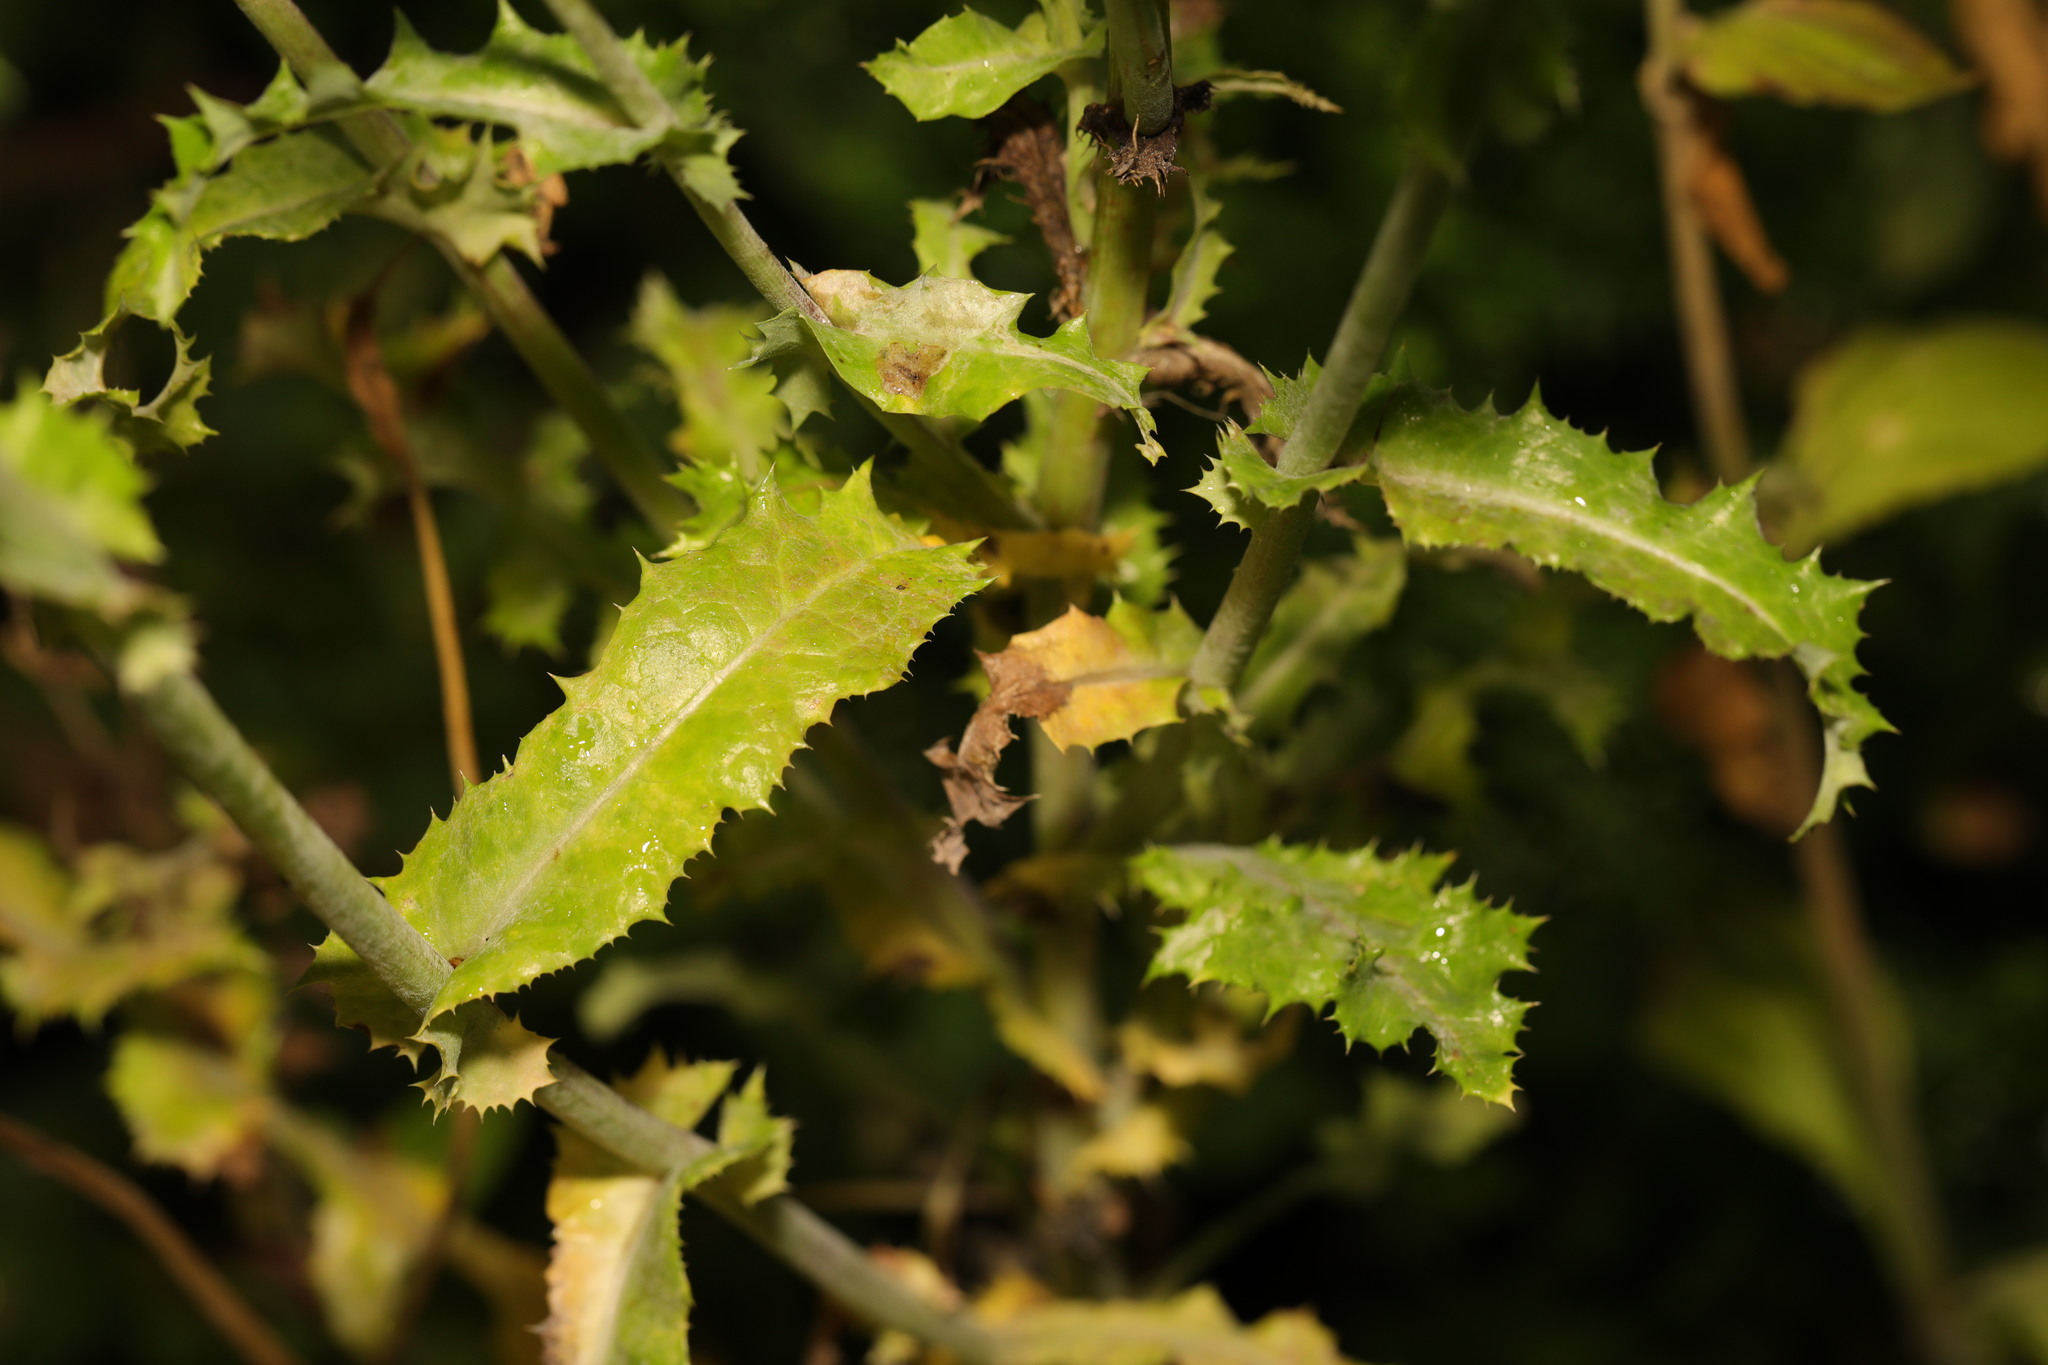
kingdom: Fungi
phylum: Ascomycota
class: Leotiomycetes
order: Helotiales
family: Erysiphaceae
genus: Golovinomyces
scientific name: Golovinomyces sonchicola
